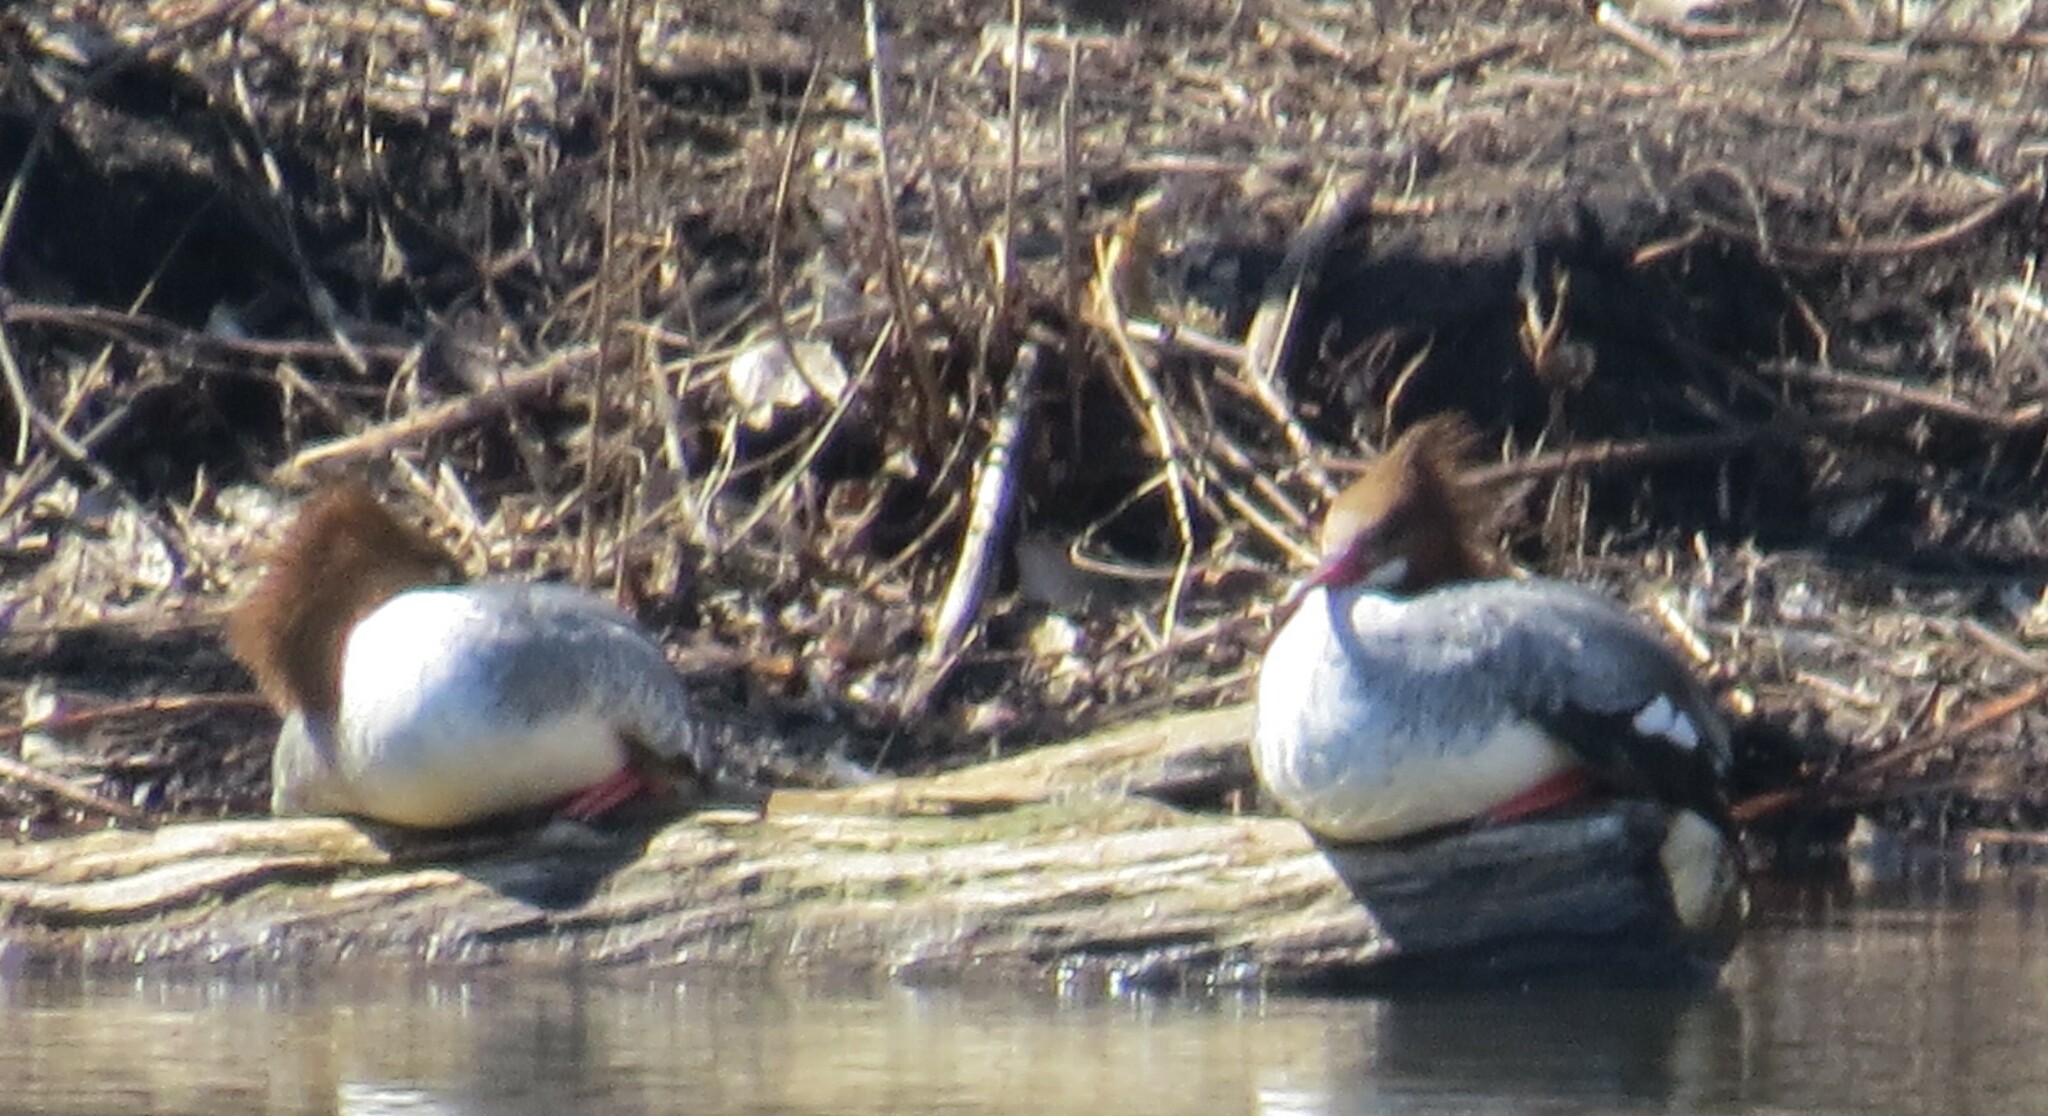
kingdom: Animalia
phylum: Chordata
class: Aves
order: Anseriformes
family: Anatidae
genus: Mergus
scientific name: Mergus merganser
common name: Common merganser
